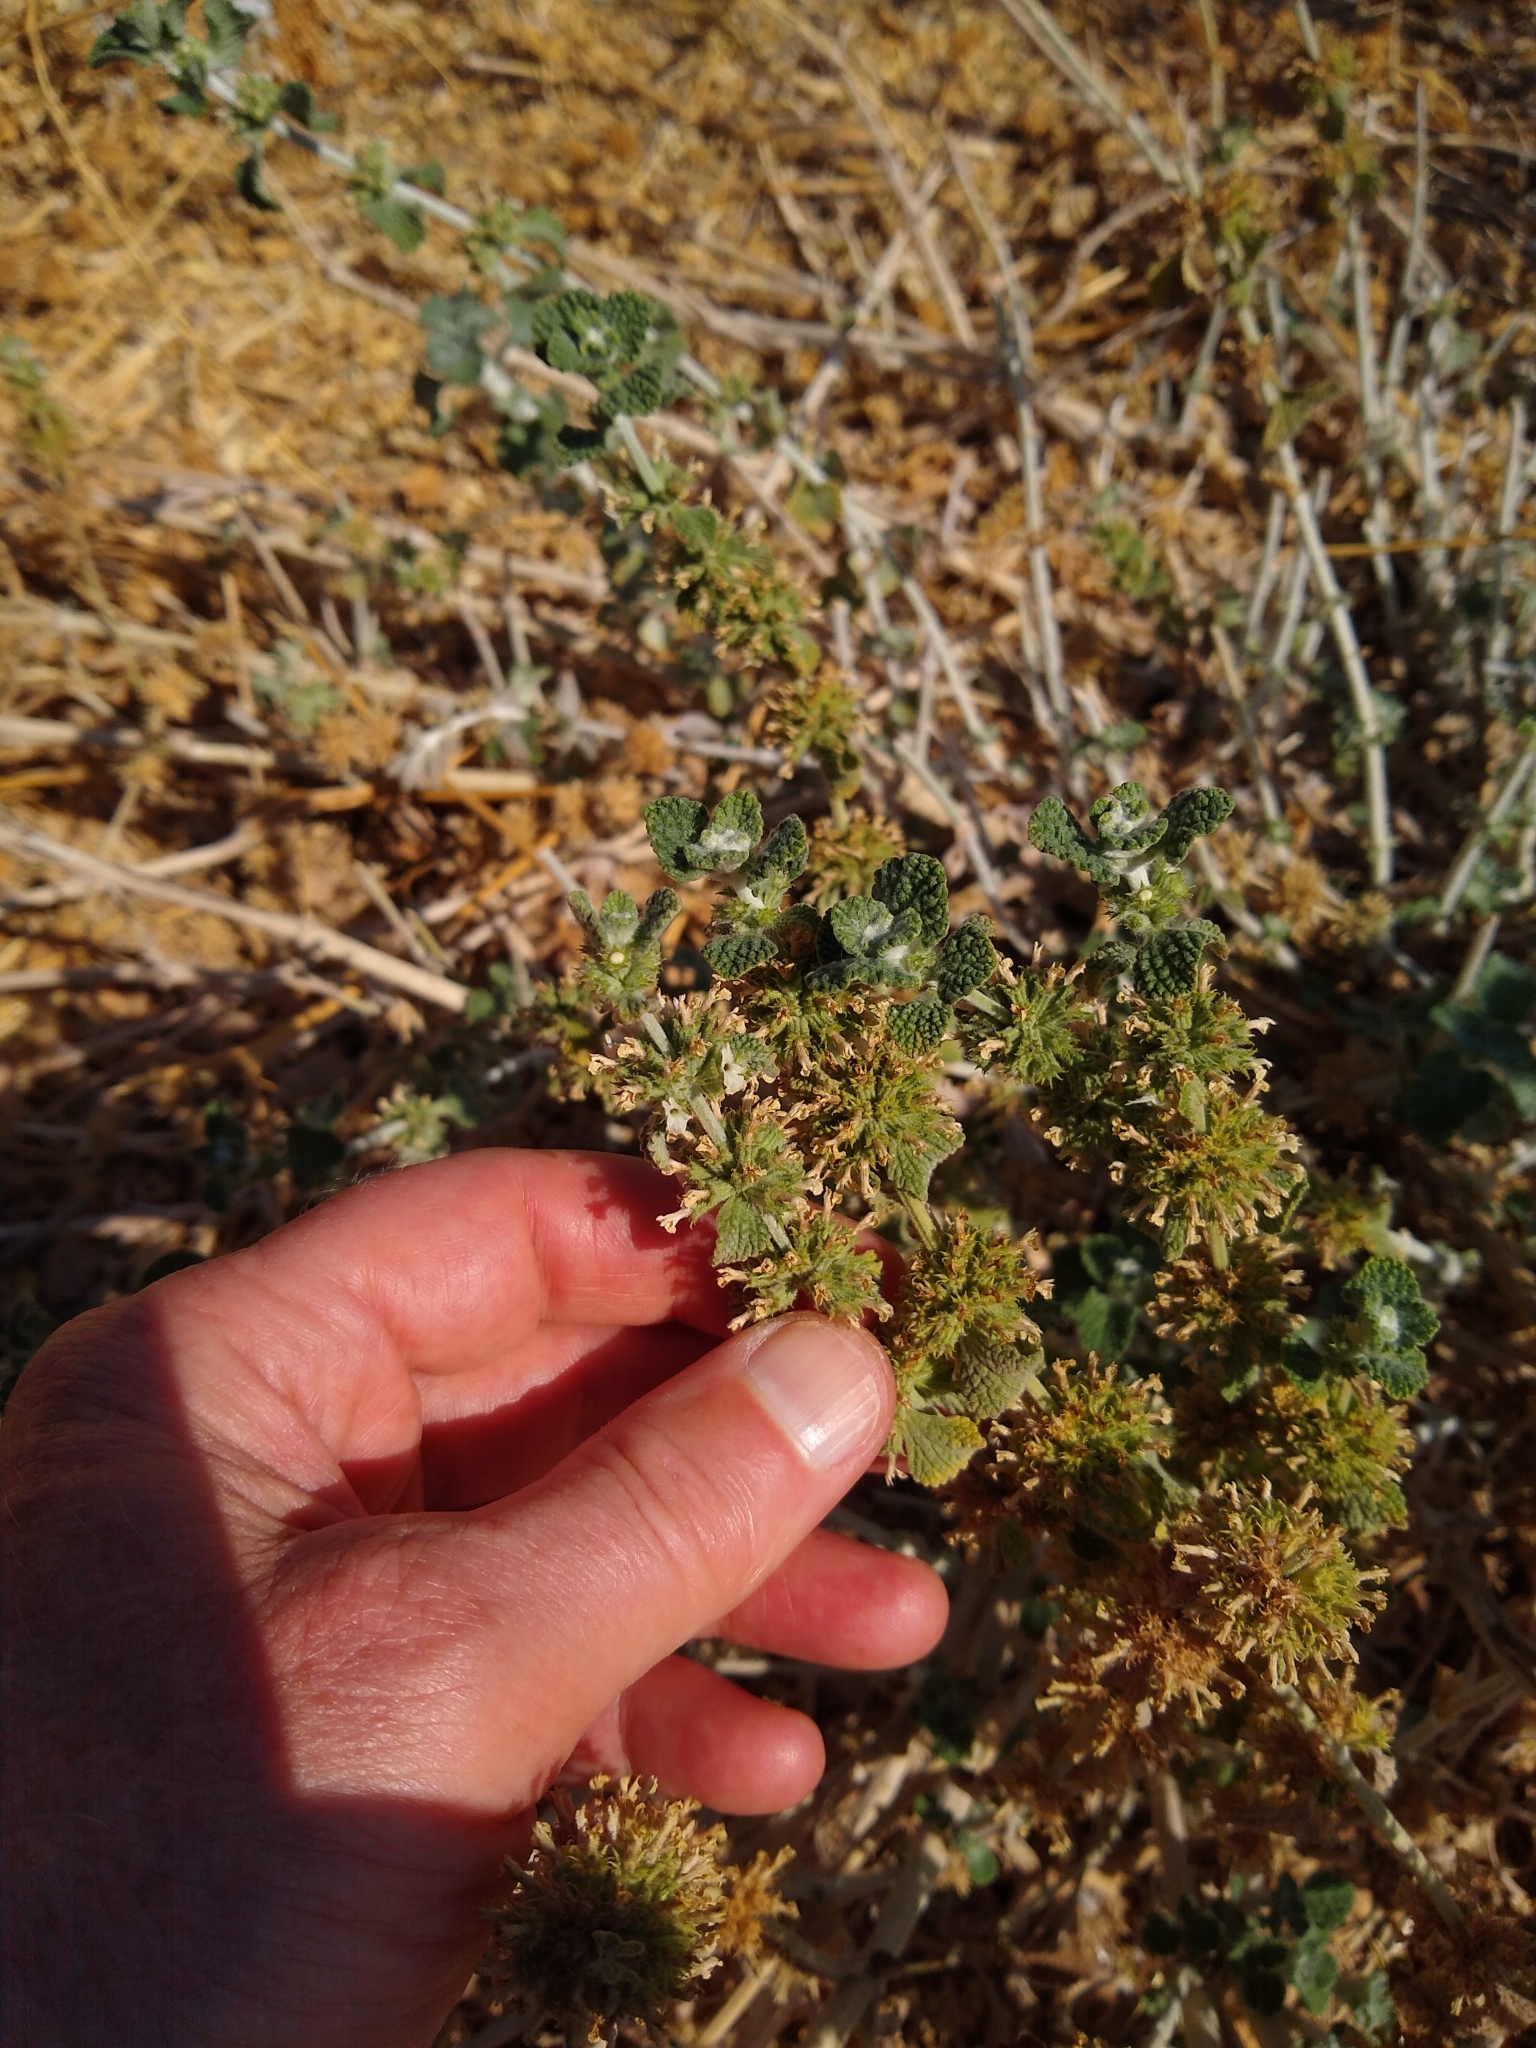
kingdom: Plantae
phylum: Tracheophyta
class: Magnoliopsida
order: Lamiales
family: Lamiaceae
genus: Marrubium
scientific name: Marrubium vulgare
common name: Horehound
